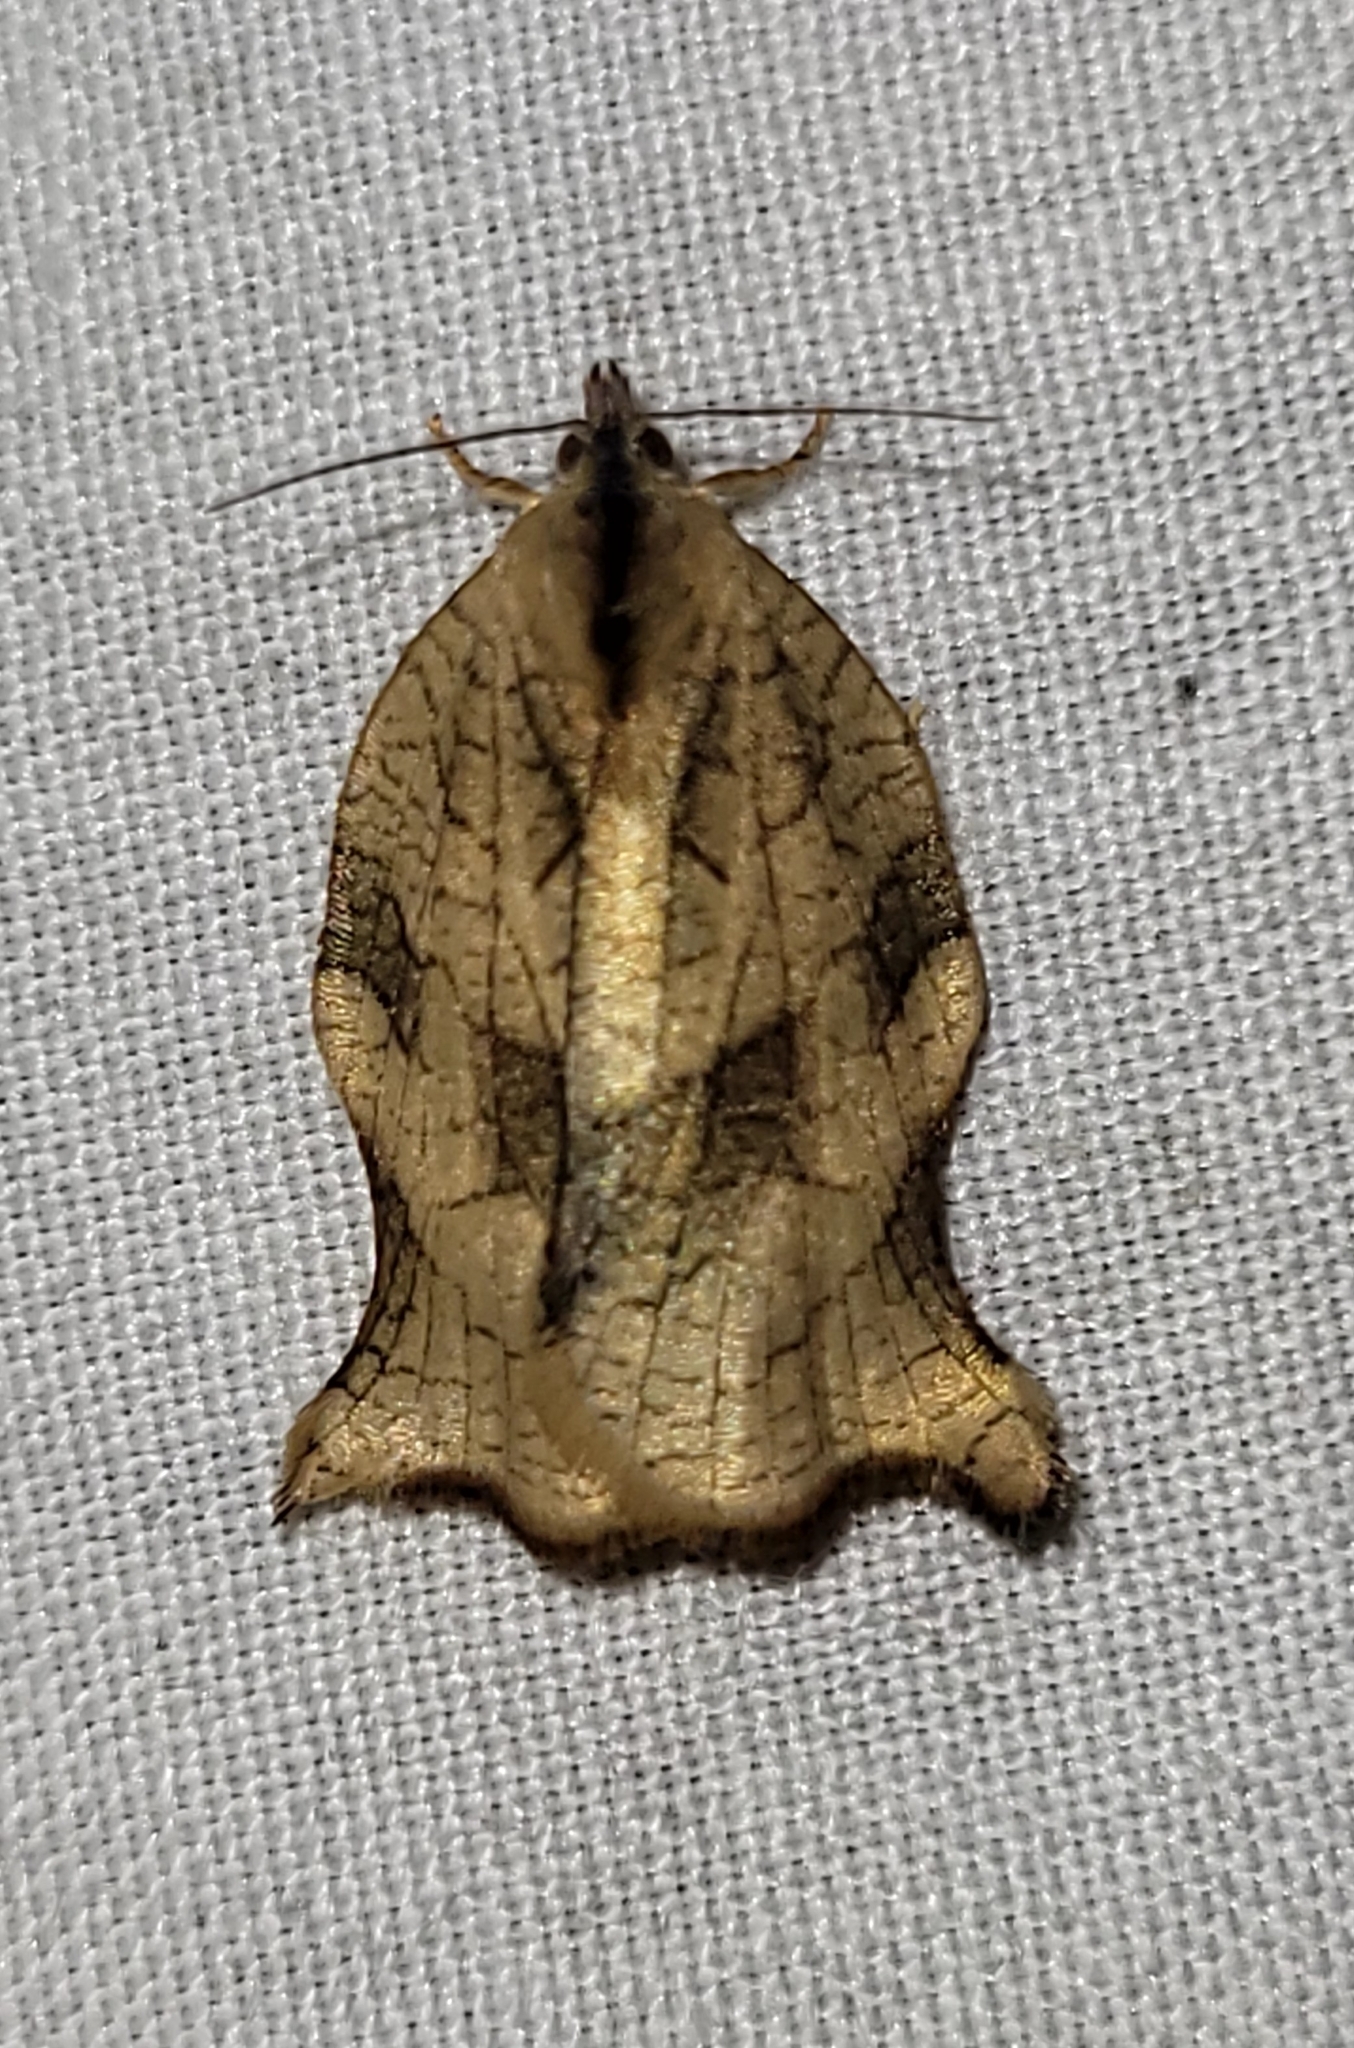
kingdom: Animalia
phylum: Arthropoda
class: Insecta
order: Lepidoptera
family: Tortricidae
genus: Archips
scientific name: Archips purpurana
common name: Omnivorous leafroller
